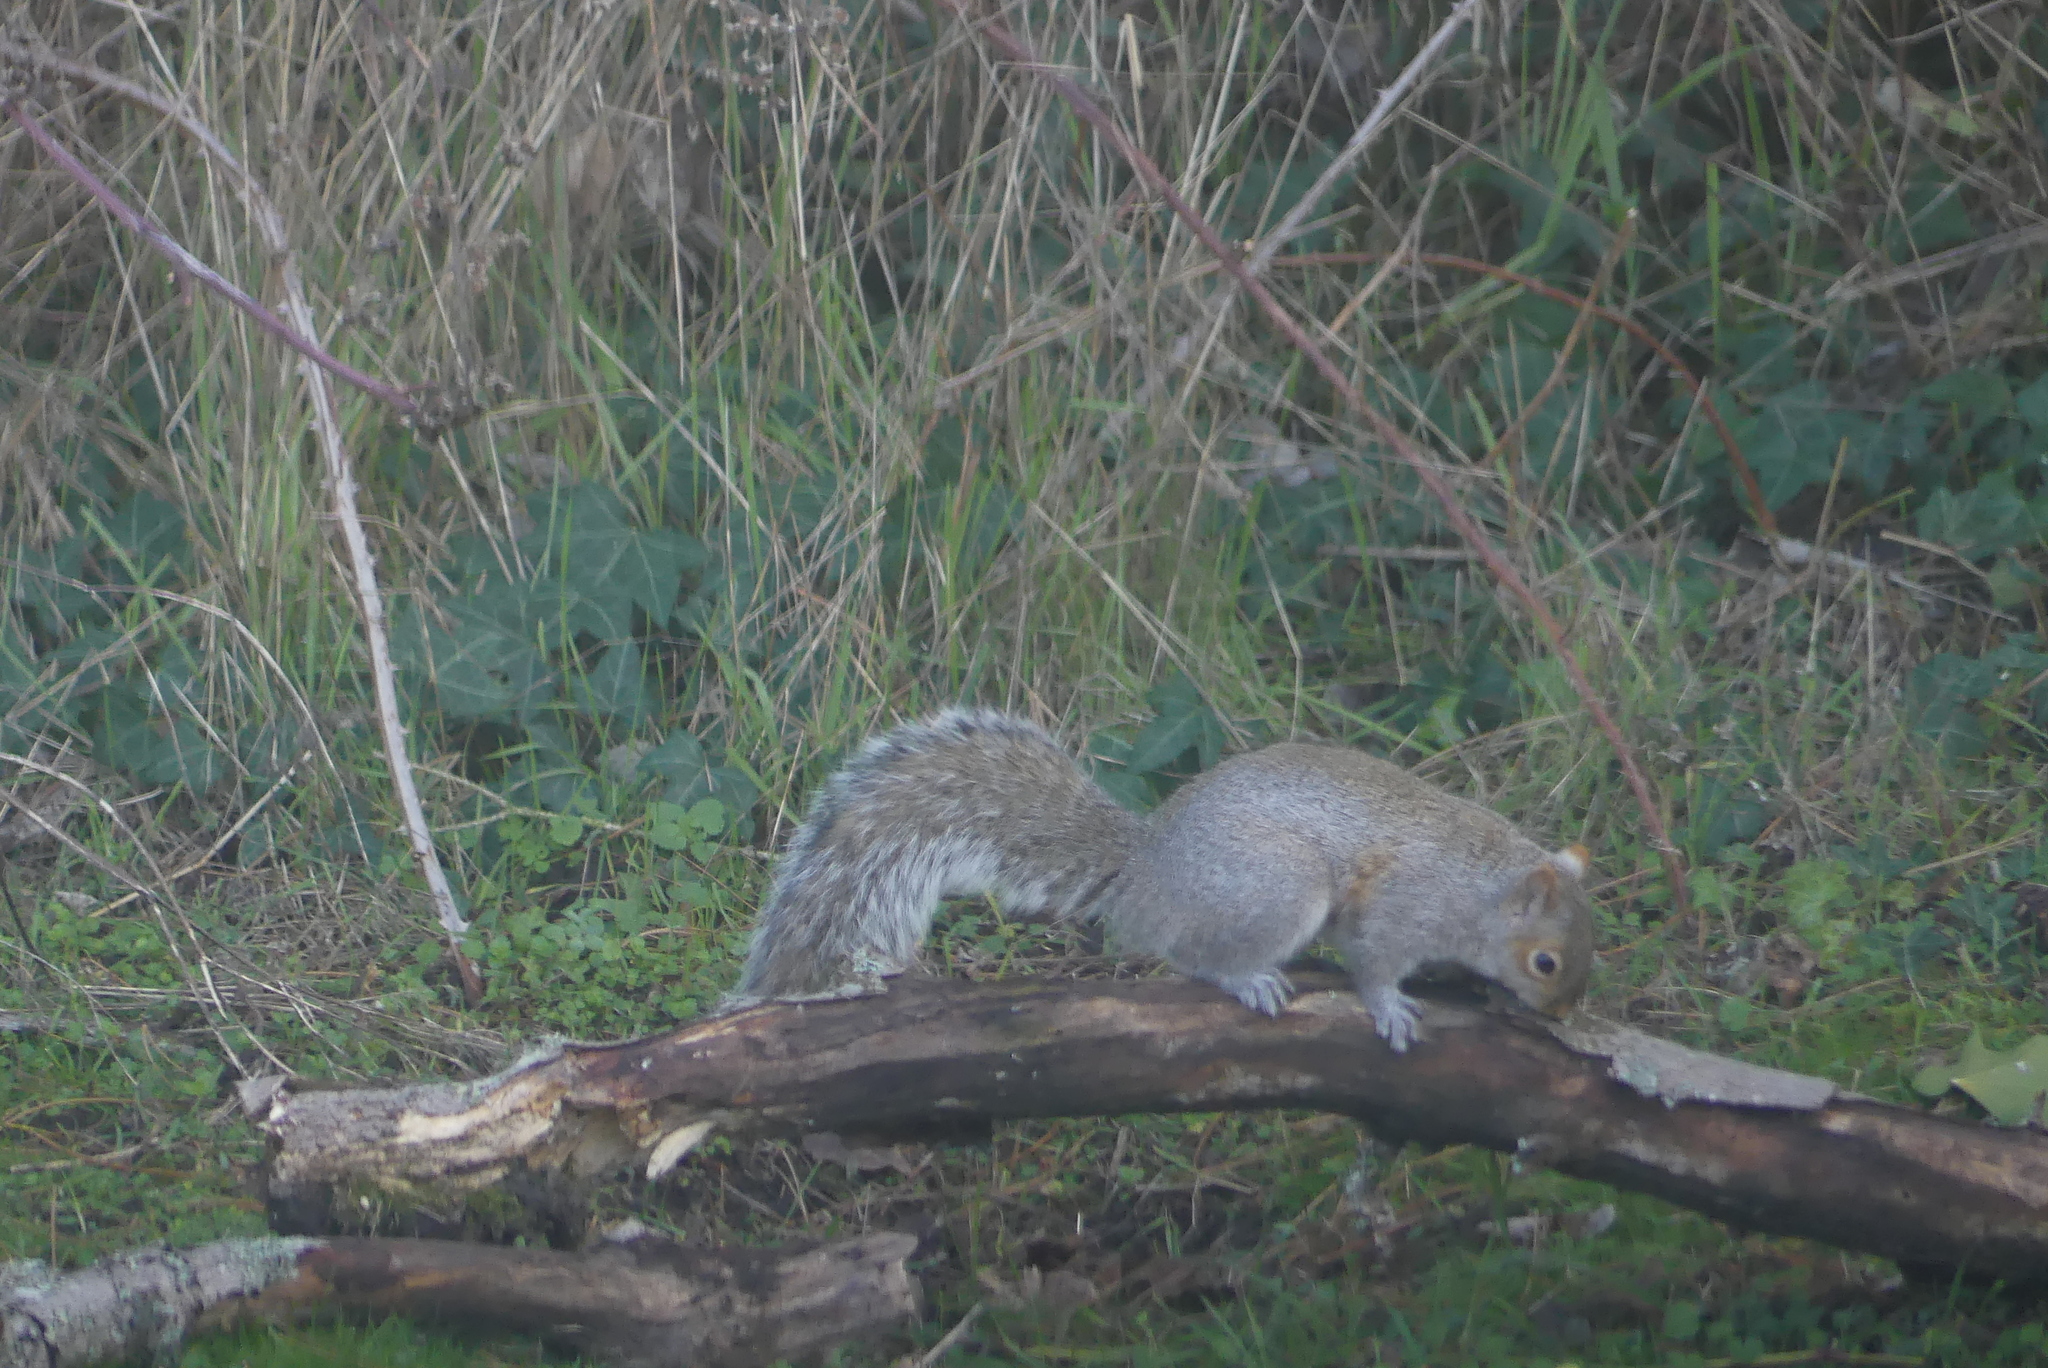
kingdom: Animalia
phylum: Chordata
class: Mammalia
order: Rodentia
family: Sciuridae
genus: Sciurus
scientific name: Sciurus carolinensis
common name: Eastern gray squirrel
